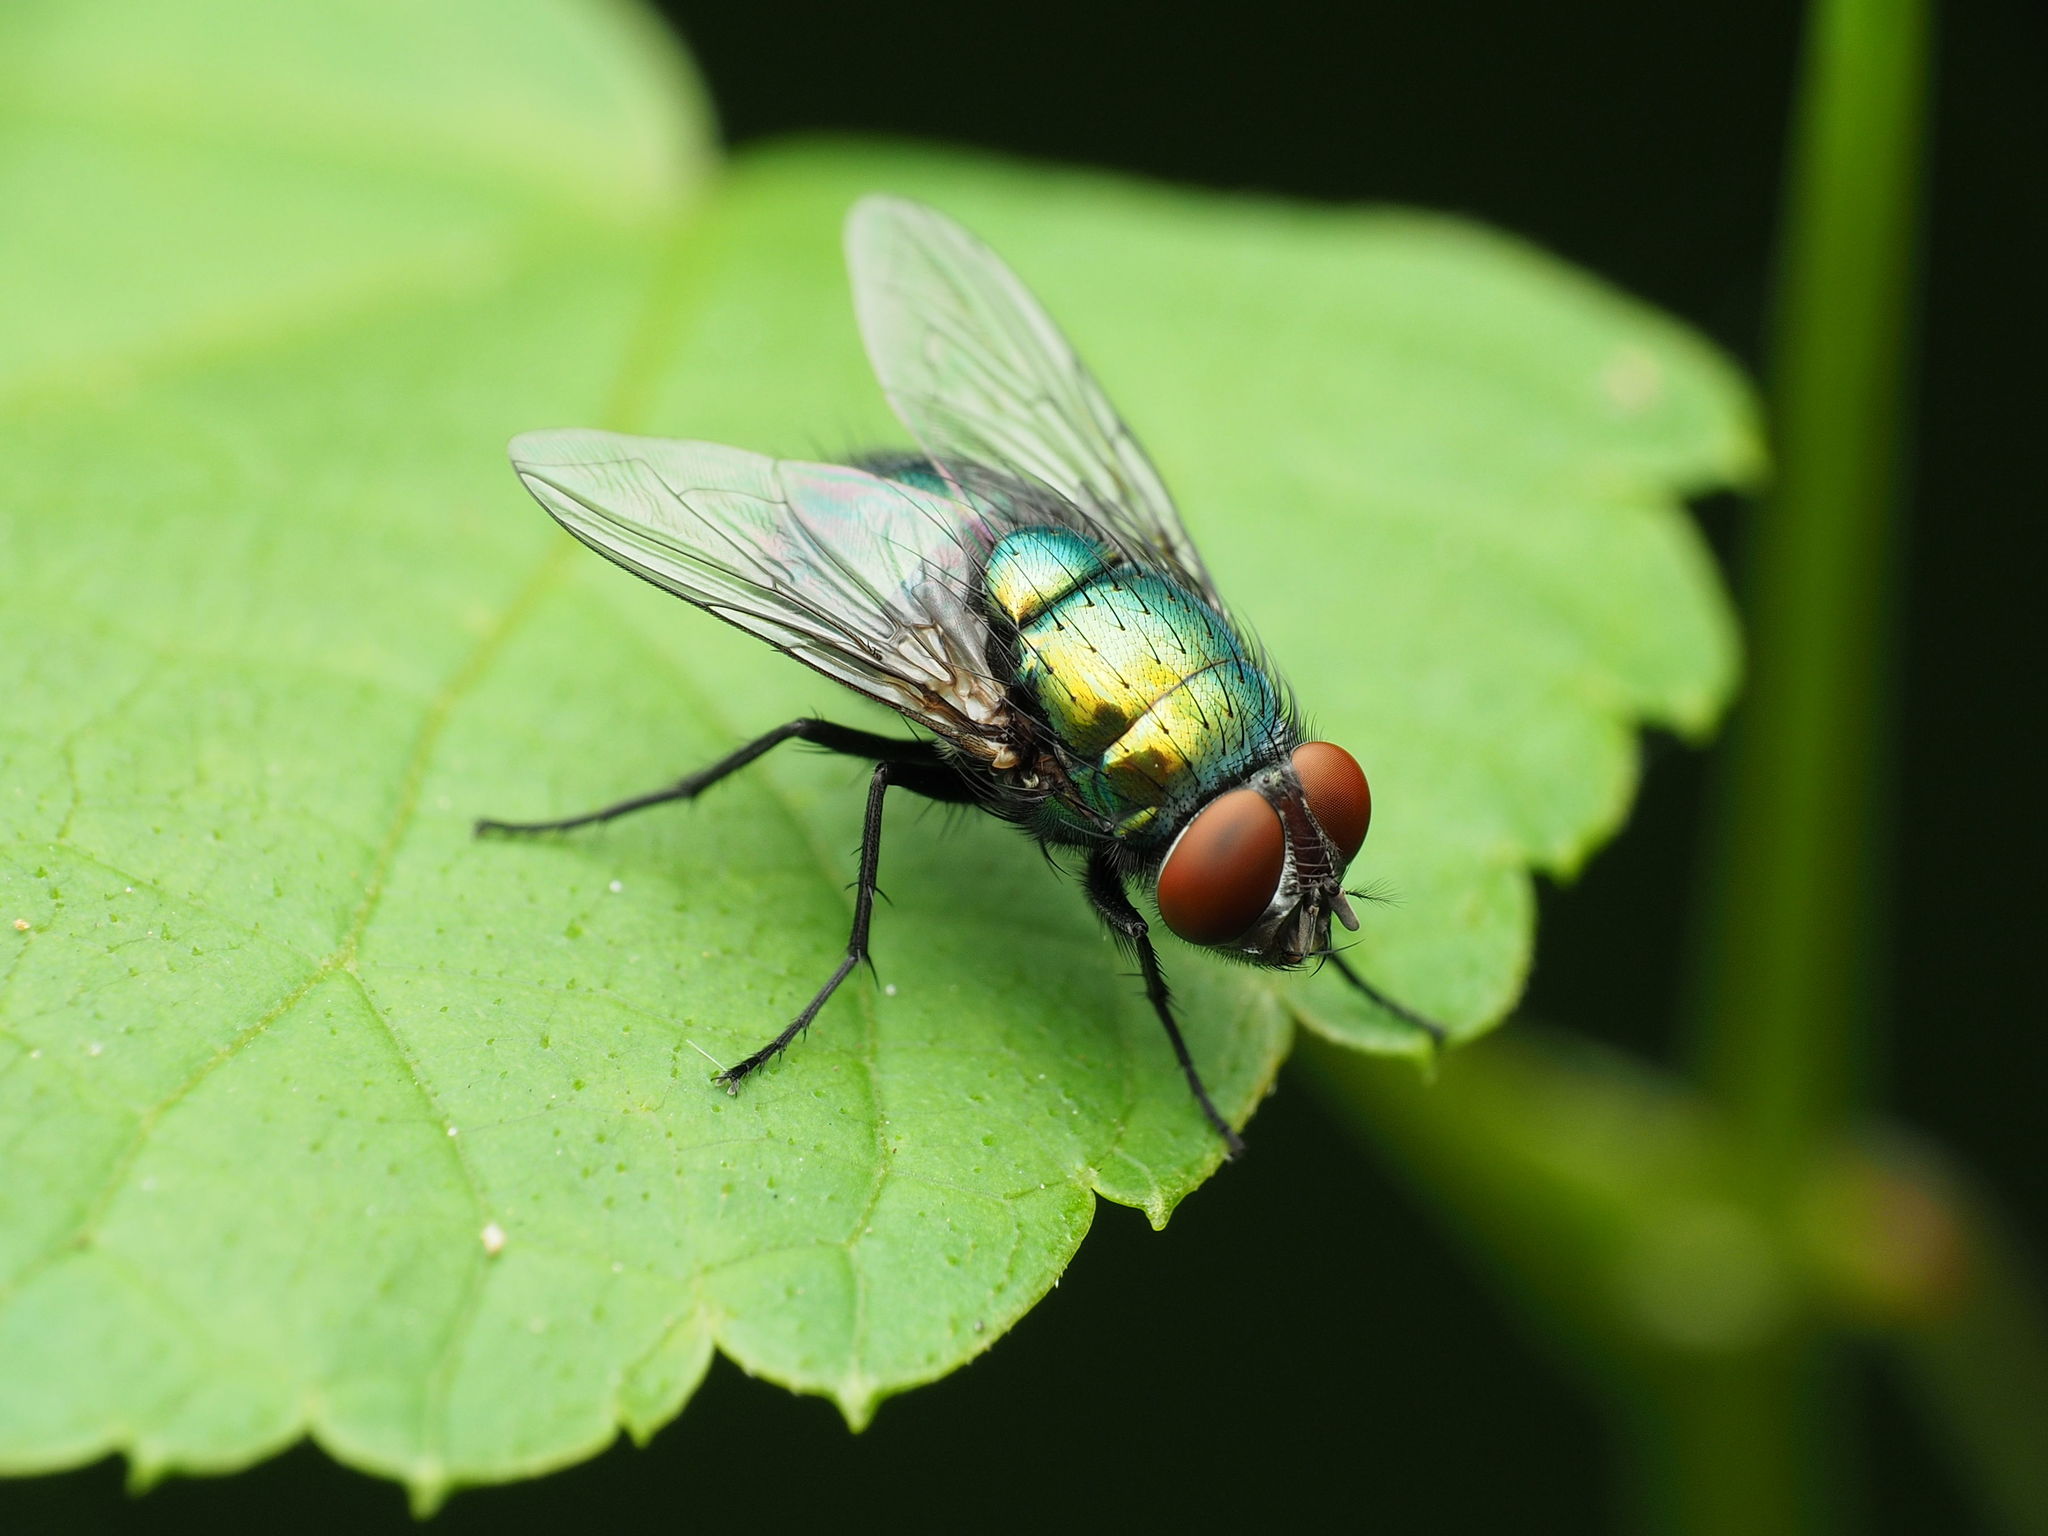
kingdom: Animalia
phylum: Arthropoda
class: Insecta
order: Diptera
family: Calliphoridae
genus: Lucilia
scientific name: Lucilia sericata
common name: Blow fly
